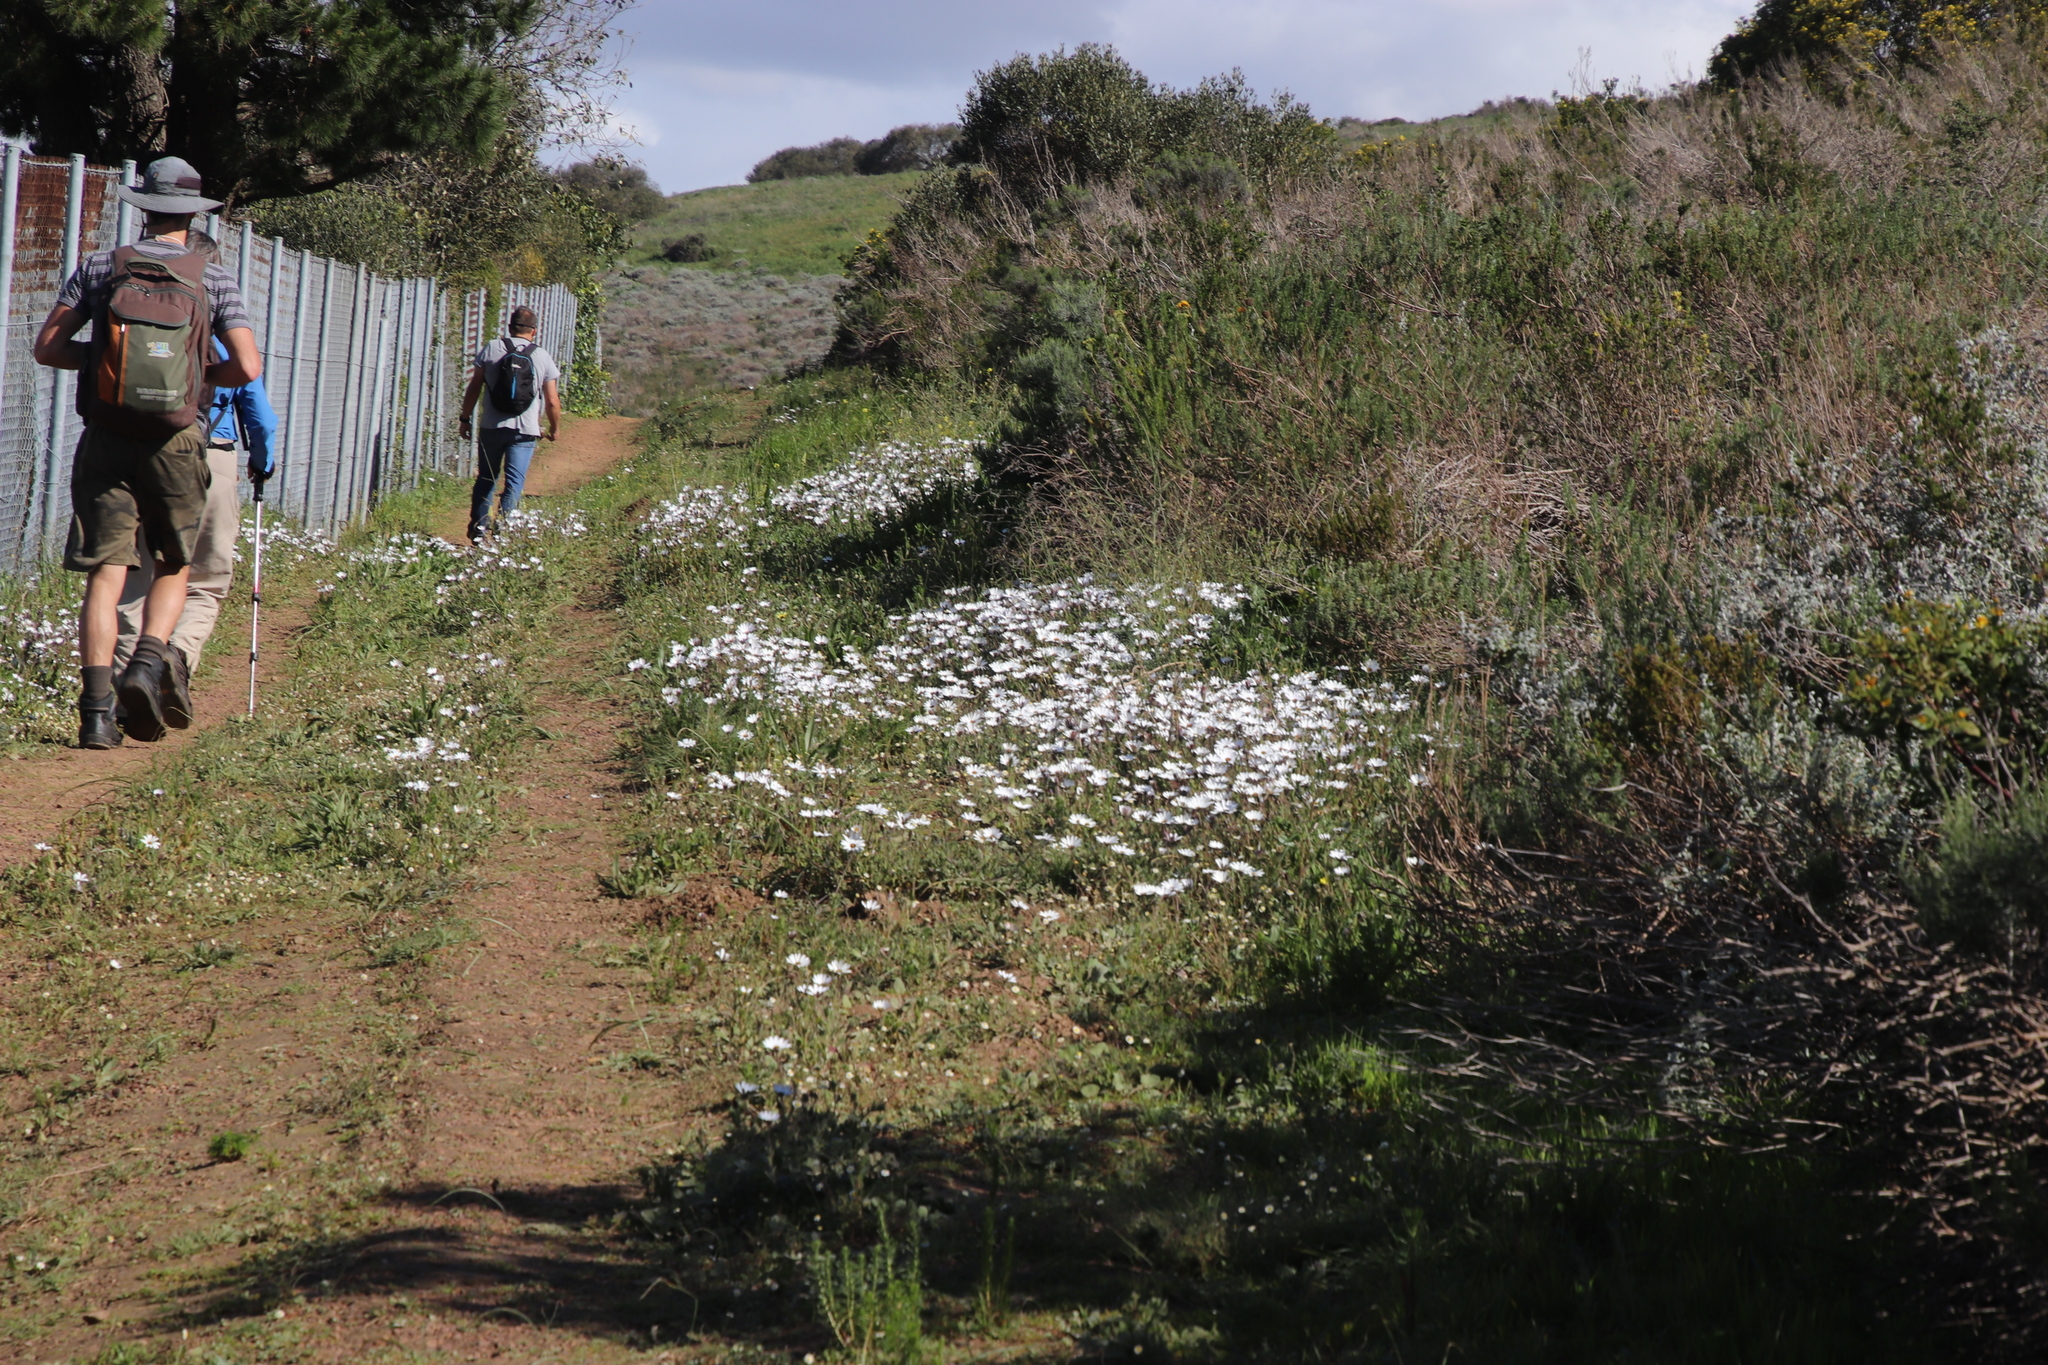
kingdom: Plantae
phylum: Tracheophyta
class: Magnoliopsida
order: Asterales
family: Asteraceae
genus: Dimorphotheca
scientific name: Dimorphotheca pluvialis
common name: Weather prophet
